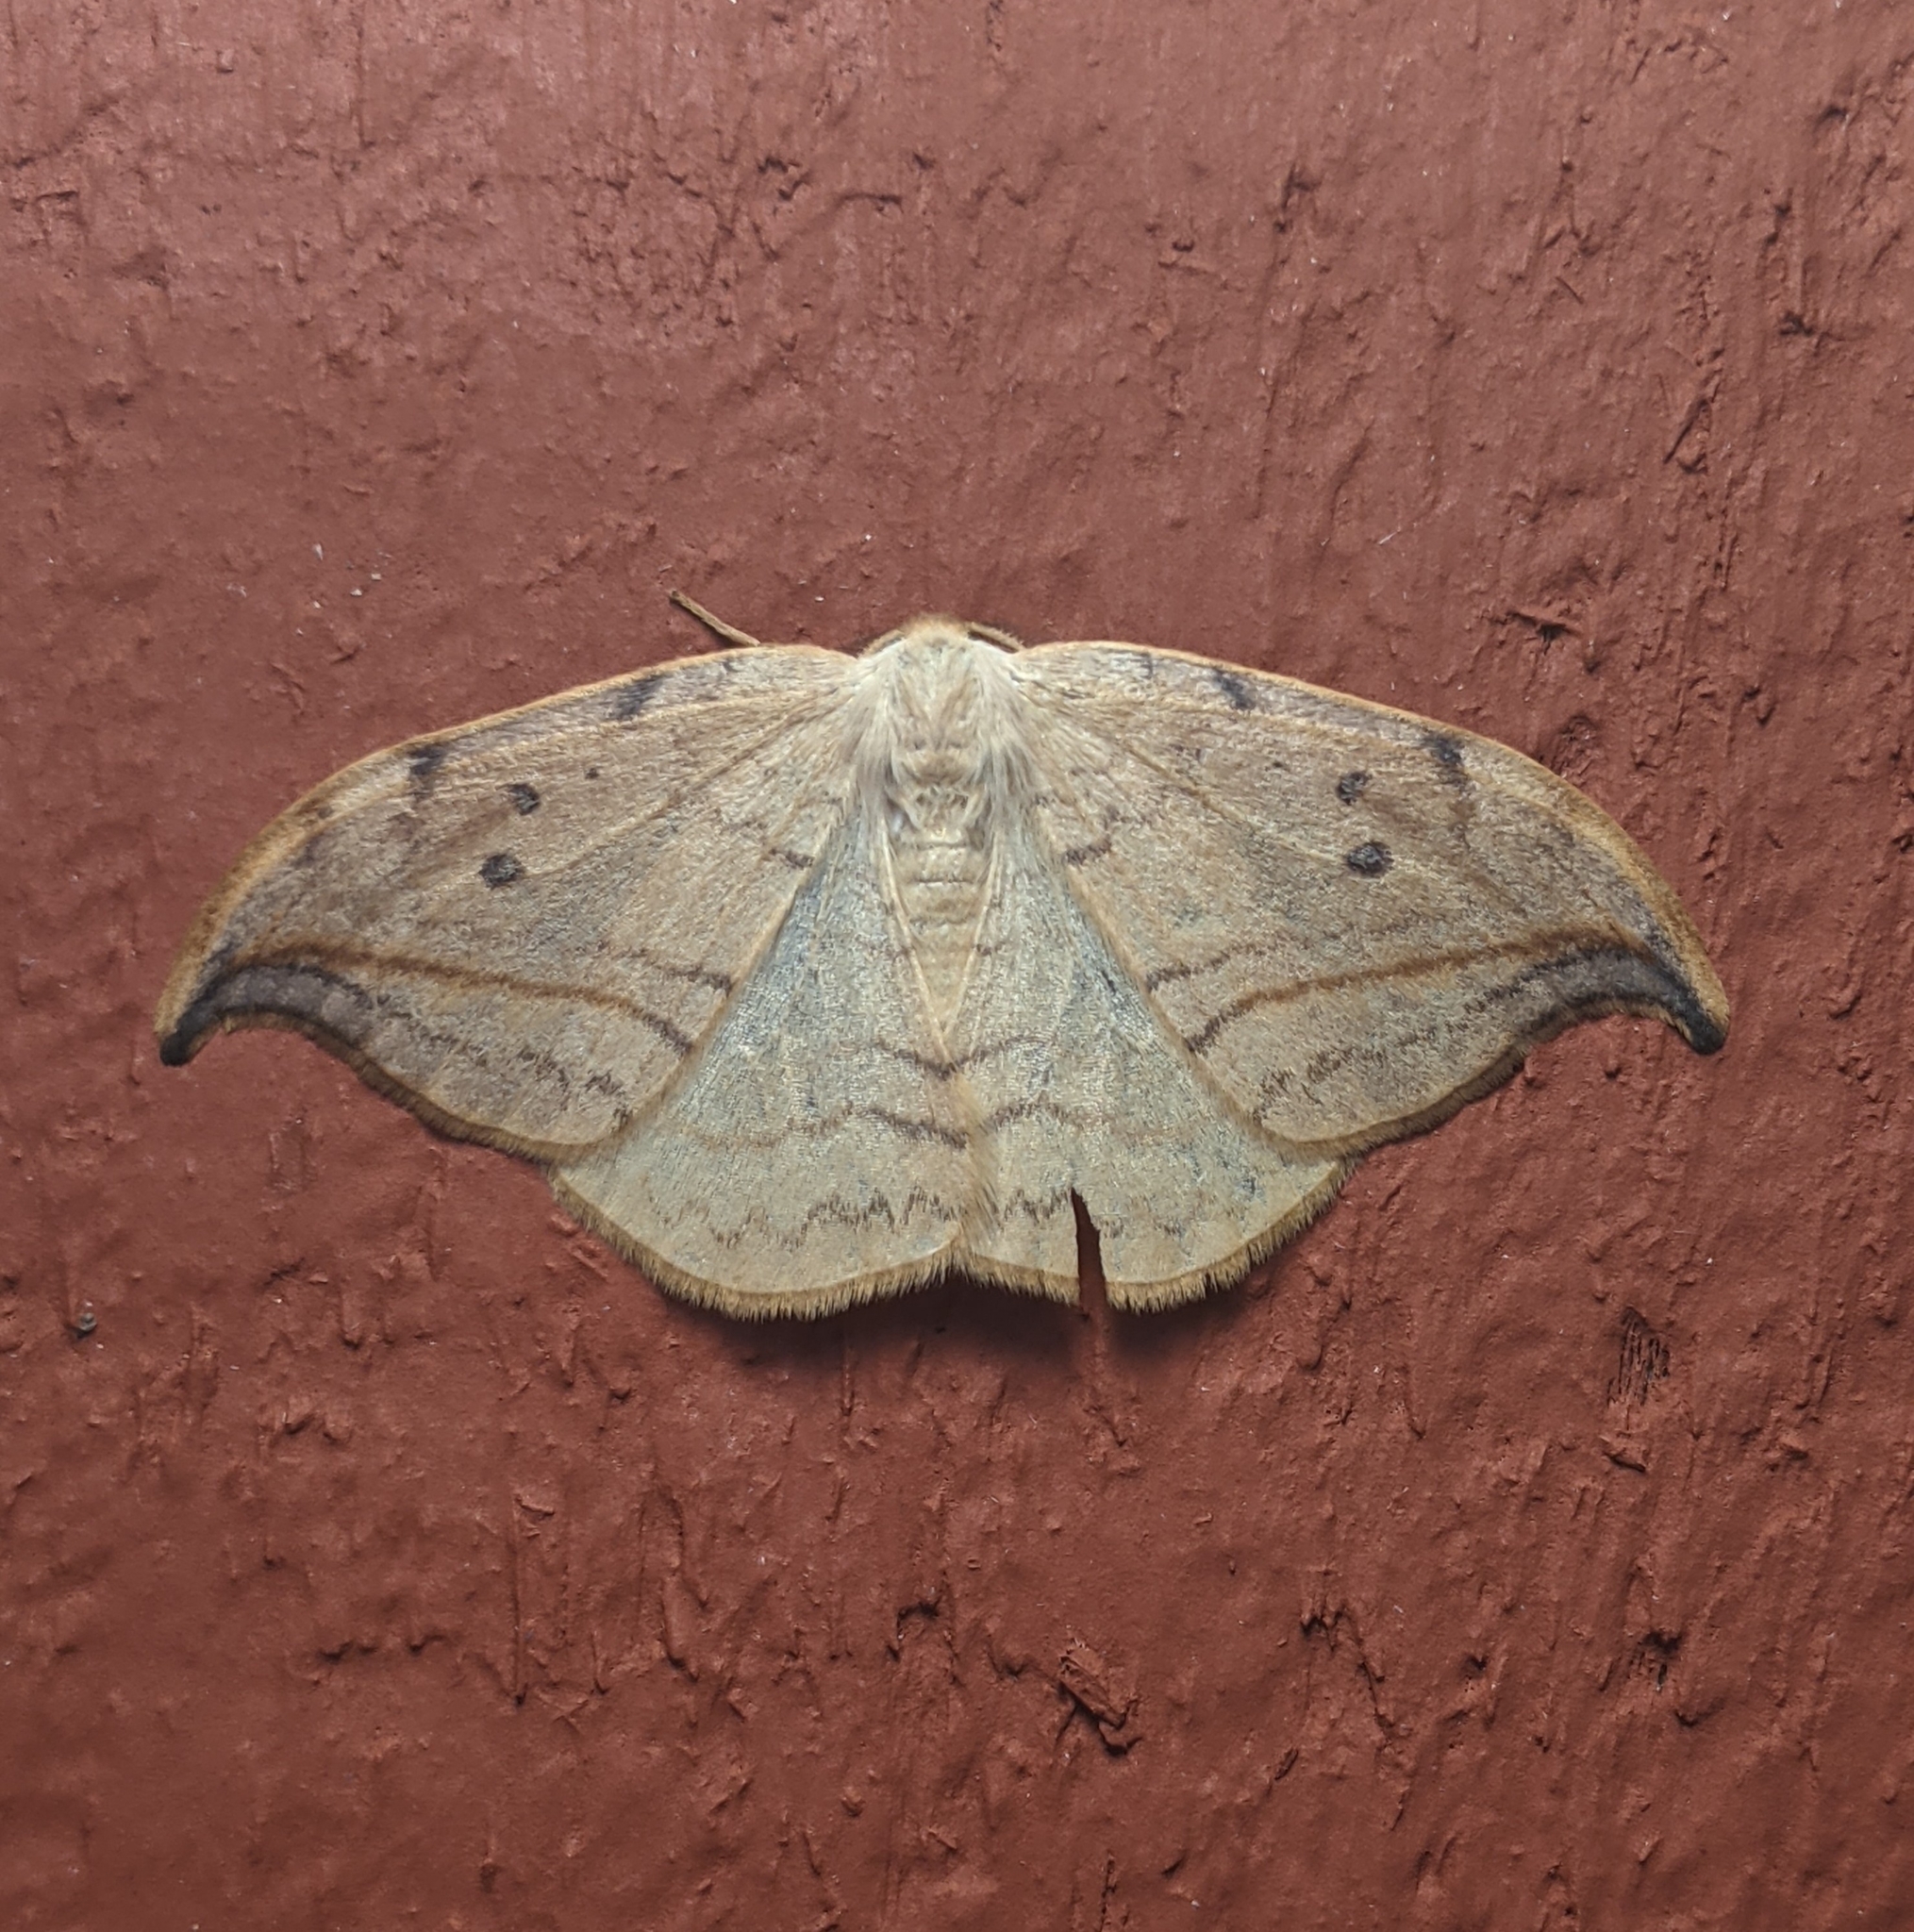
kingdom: Animalia
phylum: Arthropoda
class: Insecta
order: Lepidoptera
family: Drepanidae
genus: Drepana
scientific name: Drepana arcuata
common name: Arched hooktip moth
